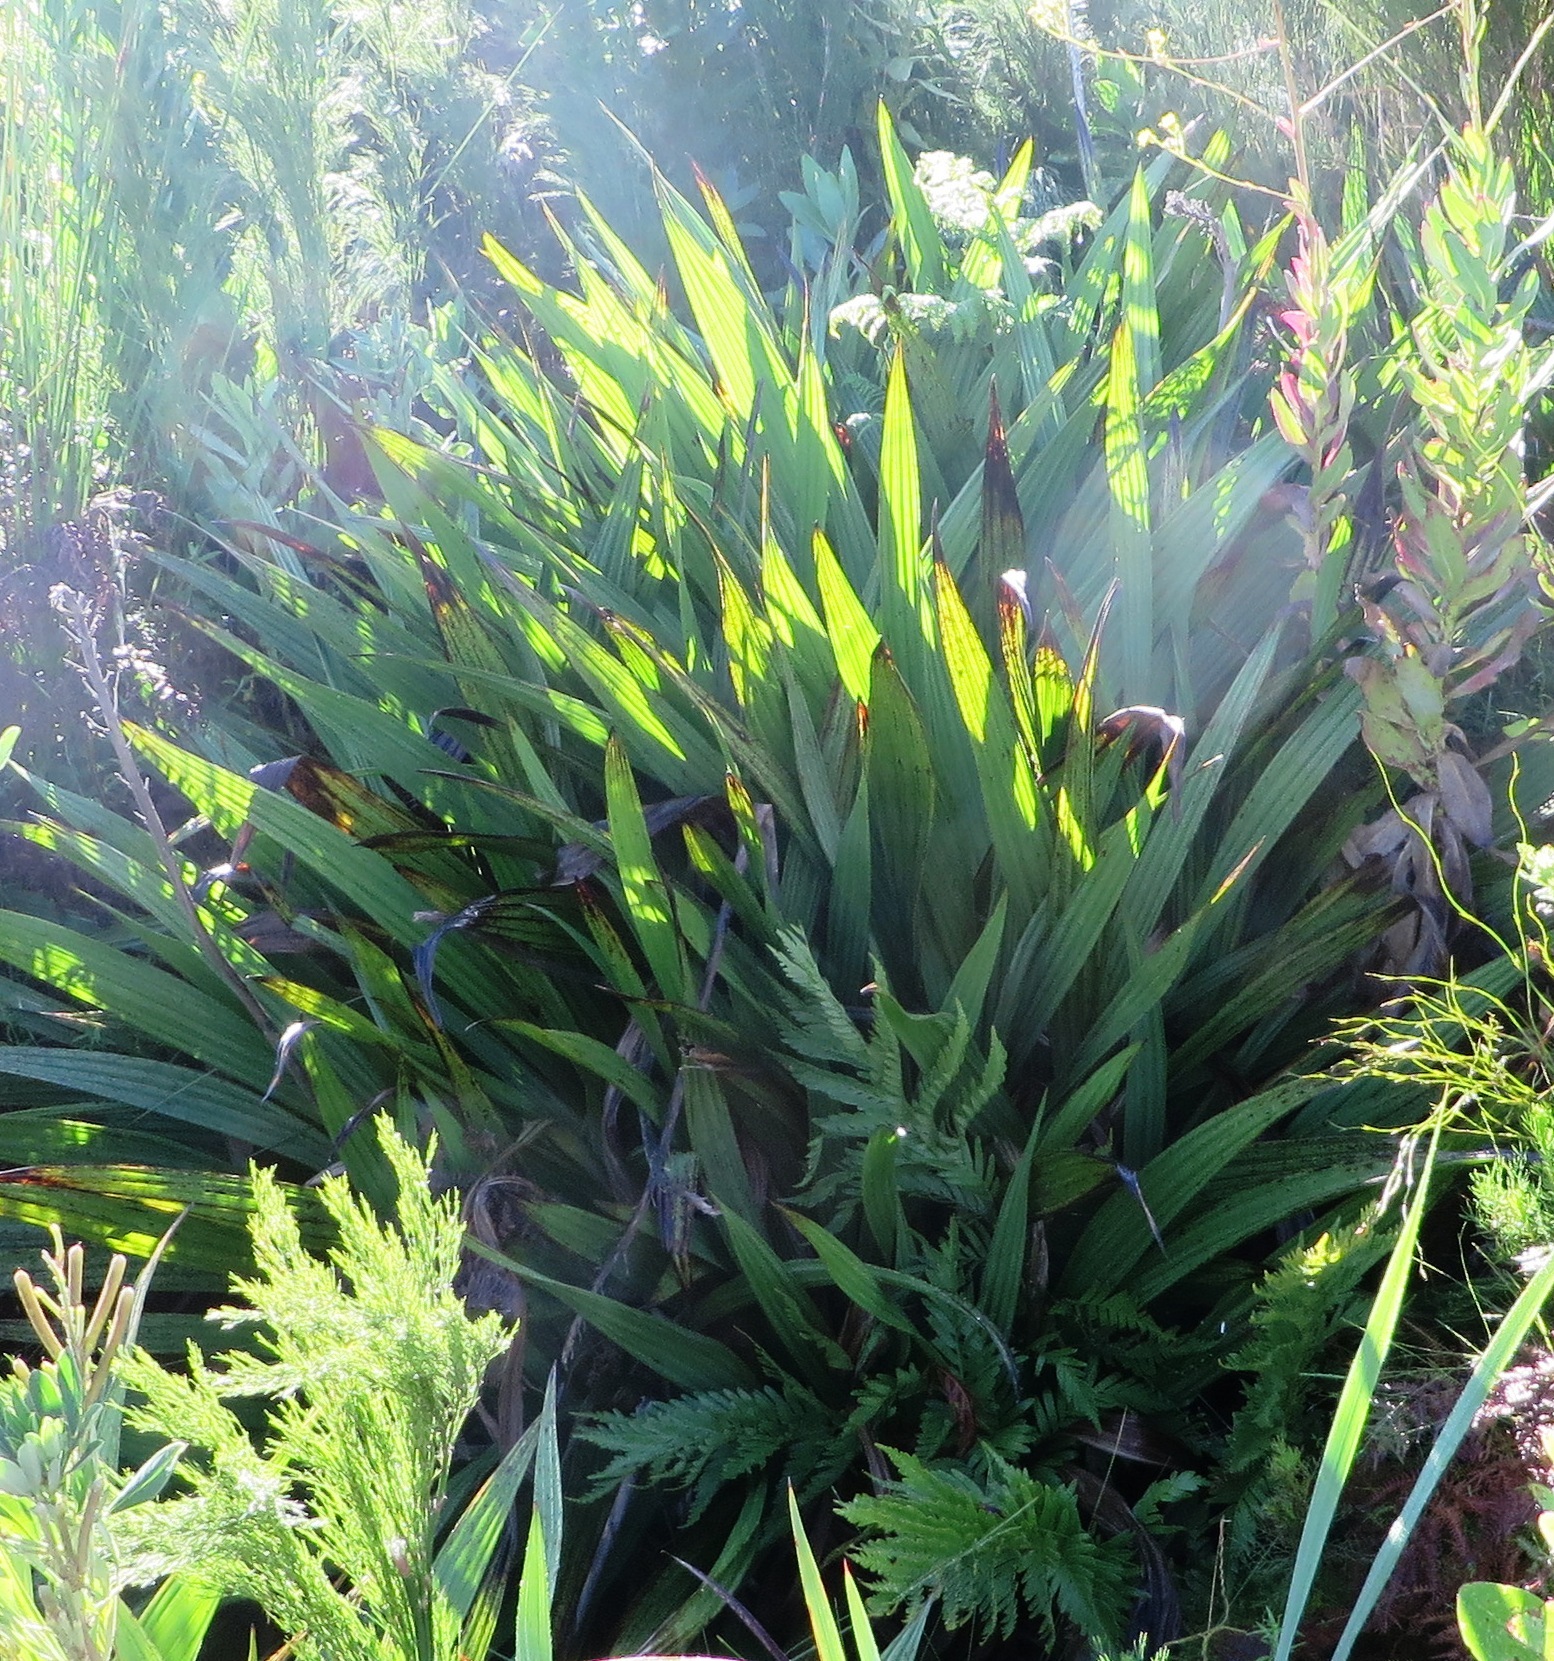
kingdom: Plantae
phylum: Tracheophyta
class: Liliopsida
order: Commelinales
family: Haemodoraceae
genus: Wachendorfia
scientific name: Wachendorfia thyrsiflora
